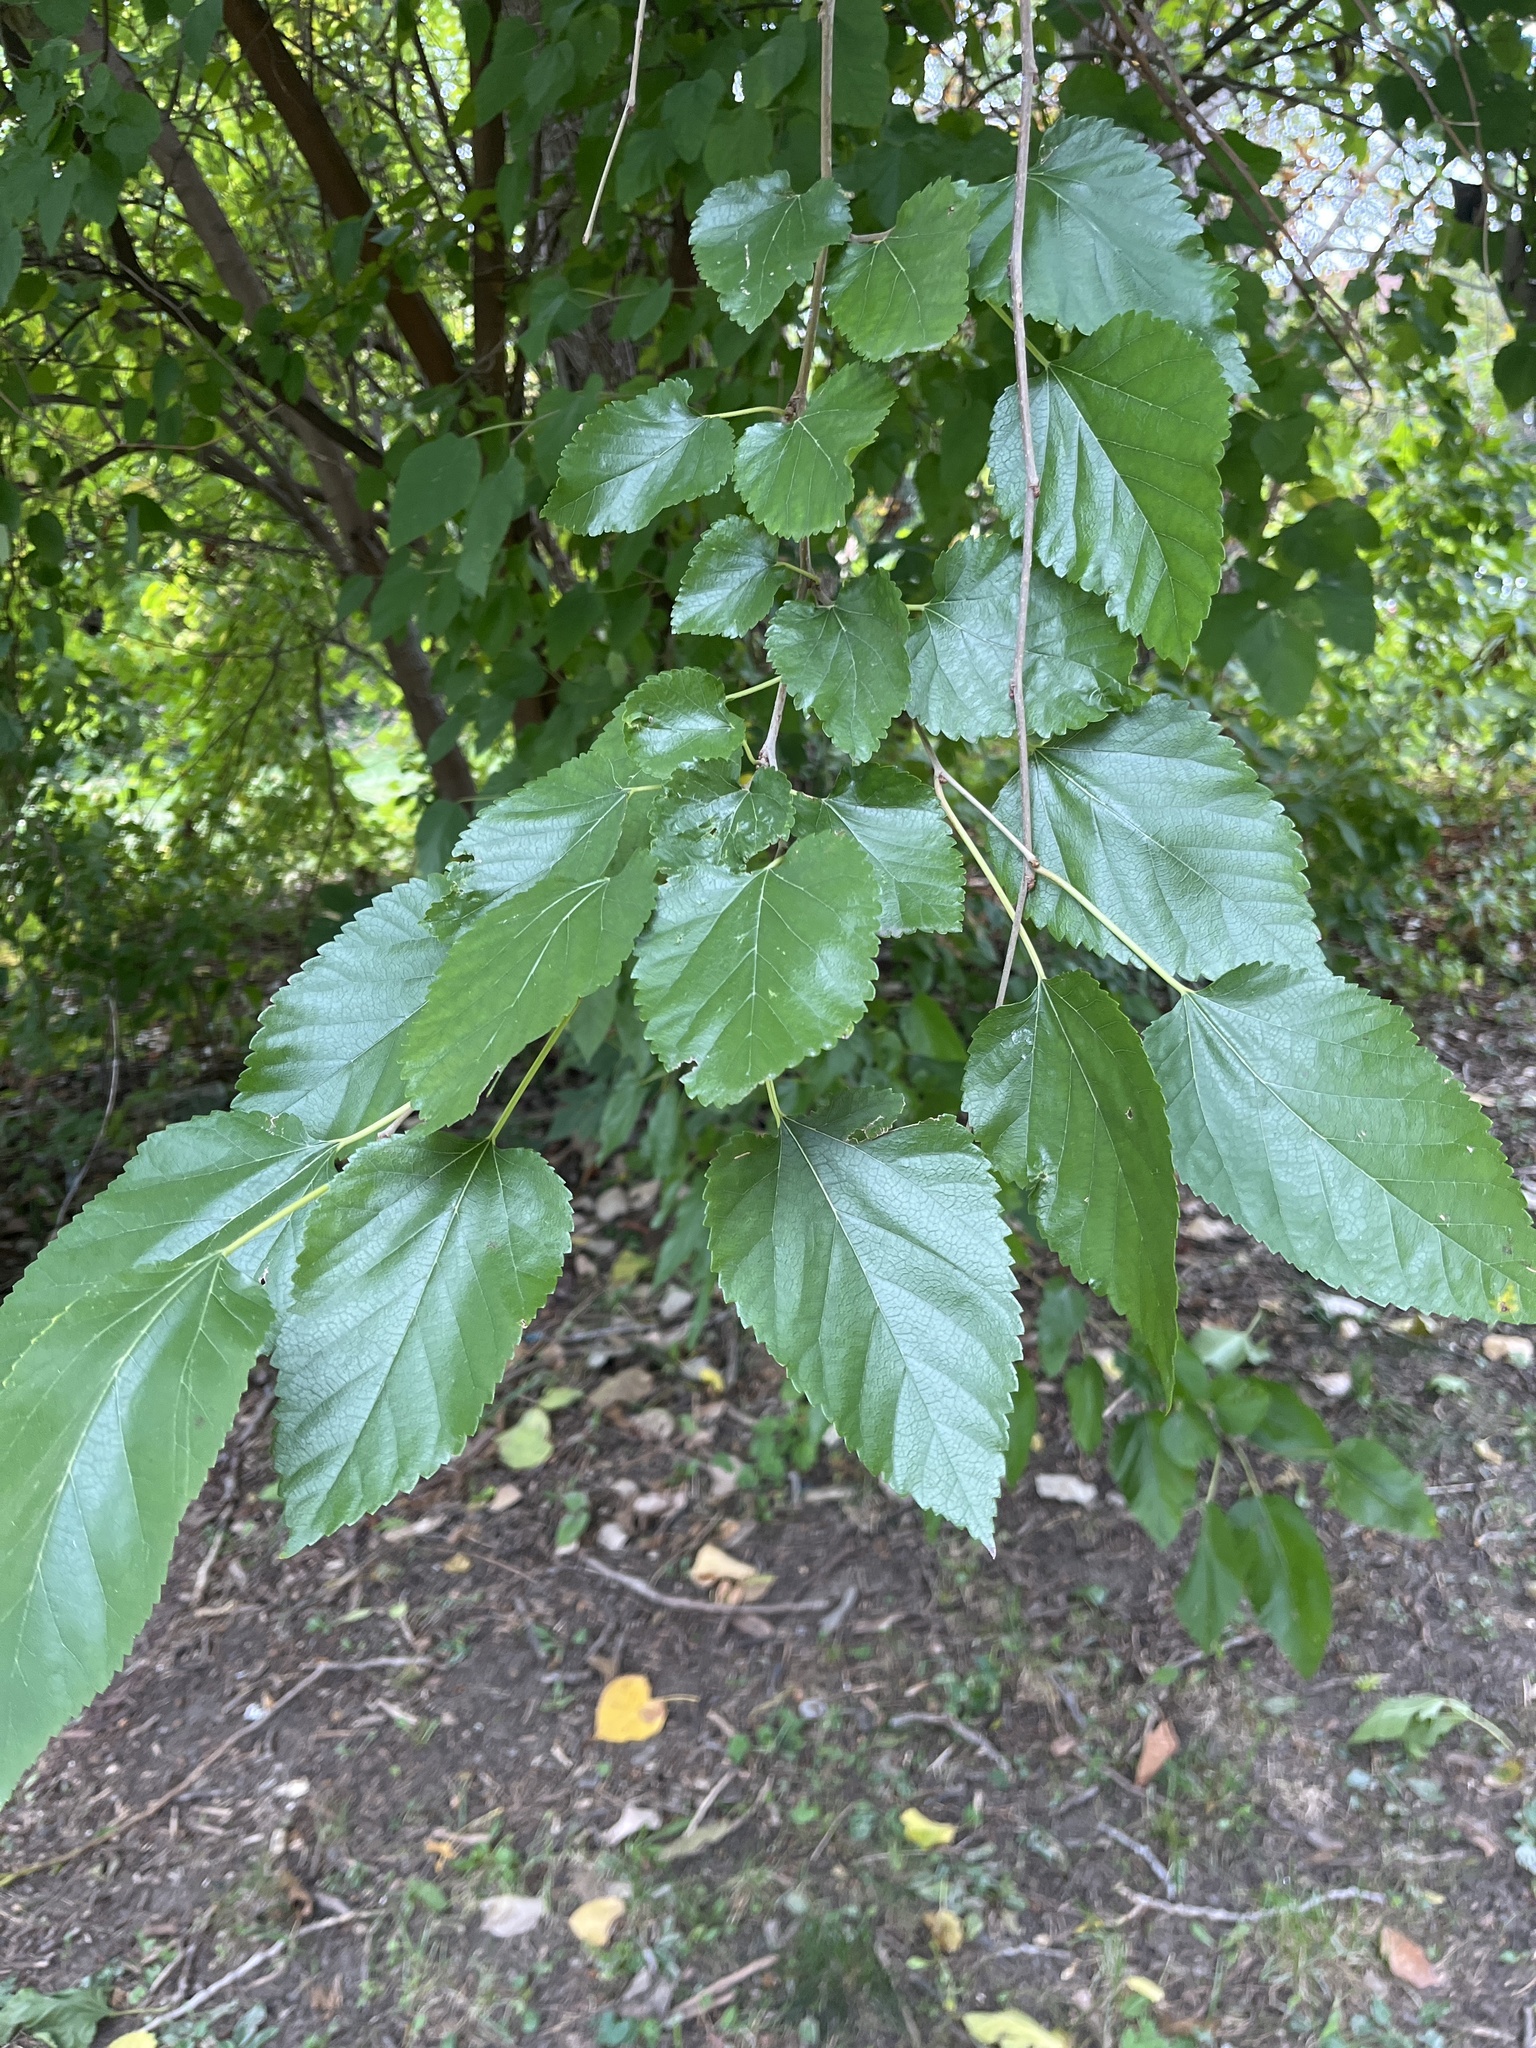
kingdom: Plantae
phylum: Tracheophyta
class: Magnoliopsida
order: Rosales
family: Moraceae
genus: Morus
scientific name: Morus alba
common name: White mulberry
